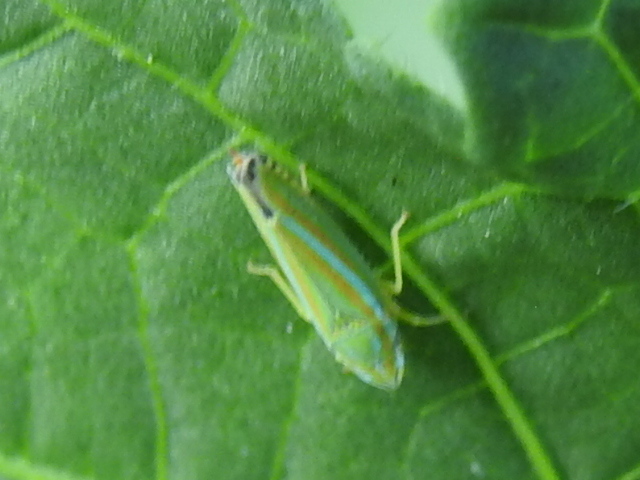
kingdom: Animalia
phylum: Arthropoda
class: Insecta
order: Hemiptera
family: Cicadellidae
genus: Graphocephala
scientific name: Graphocephala versuta
